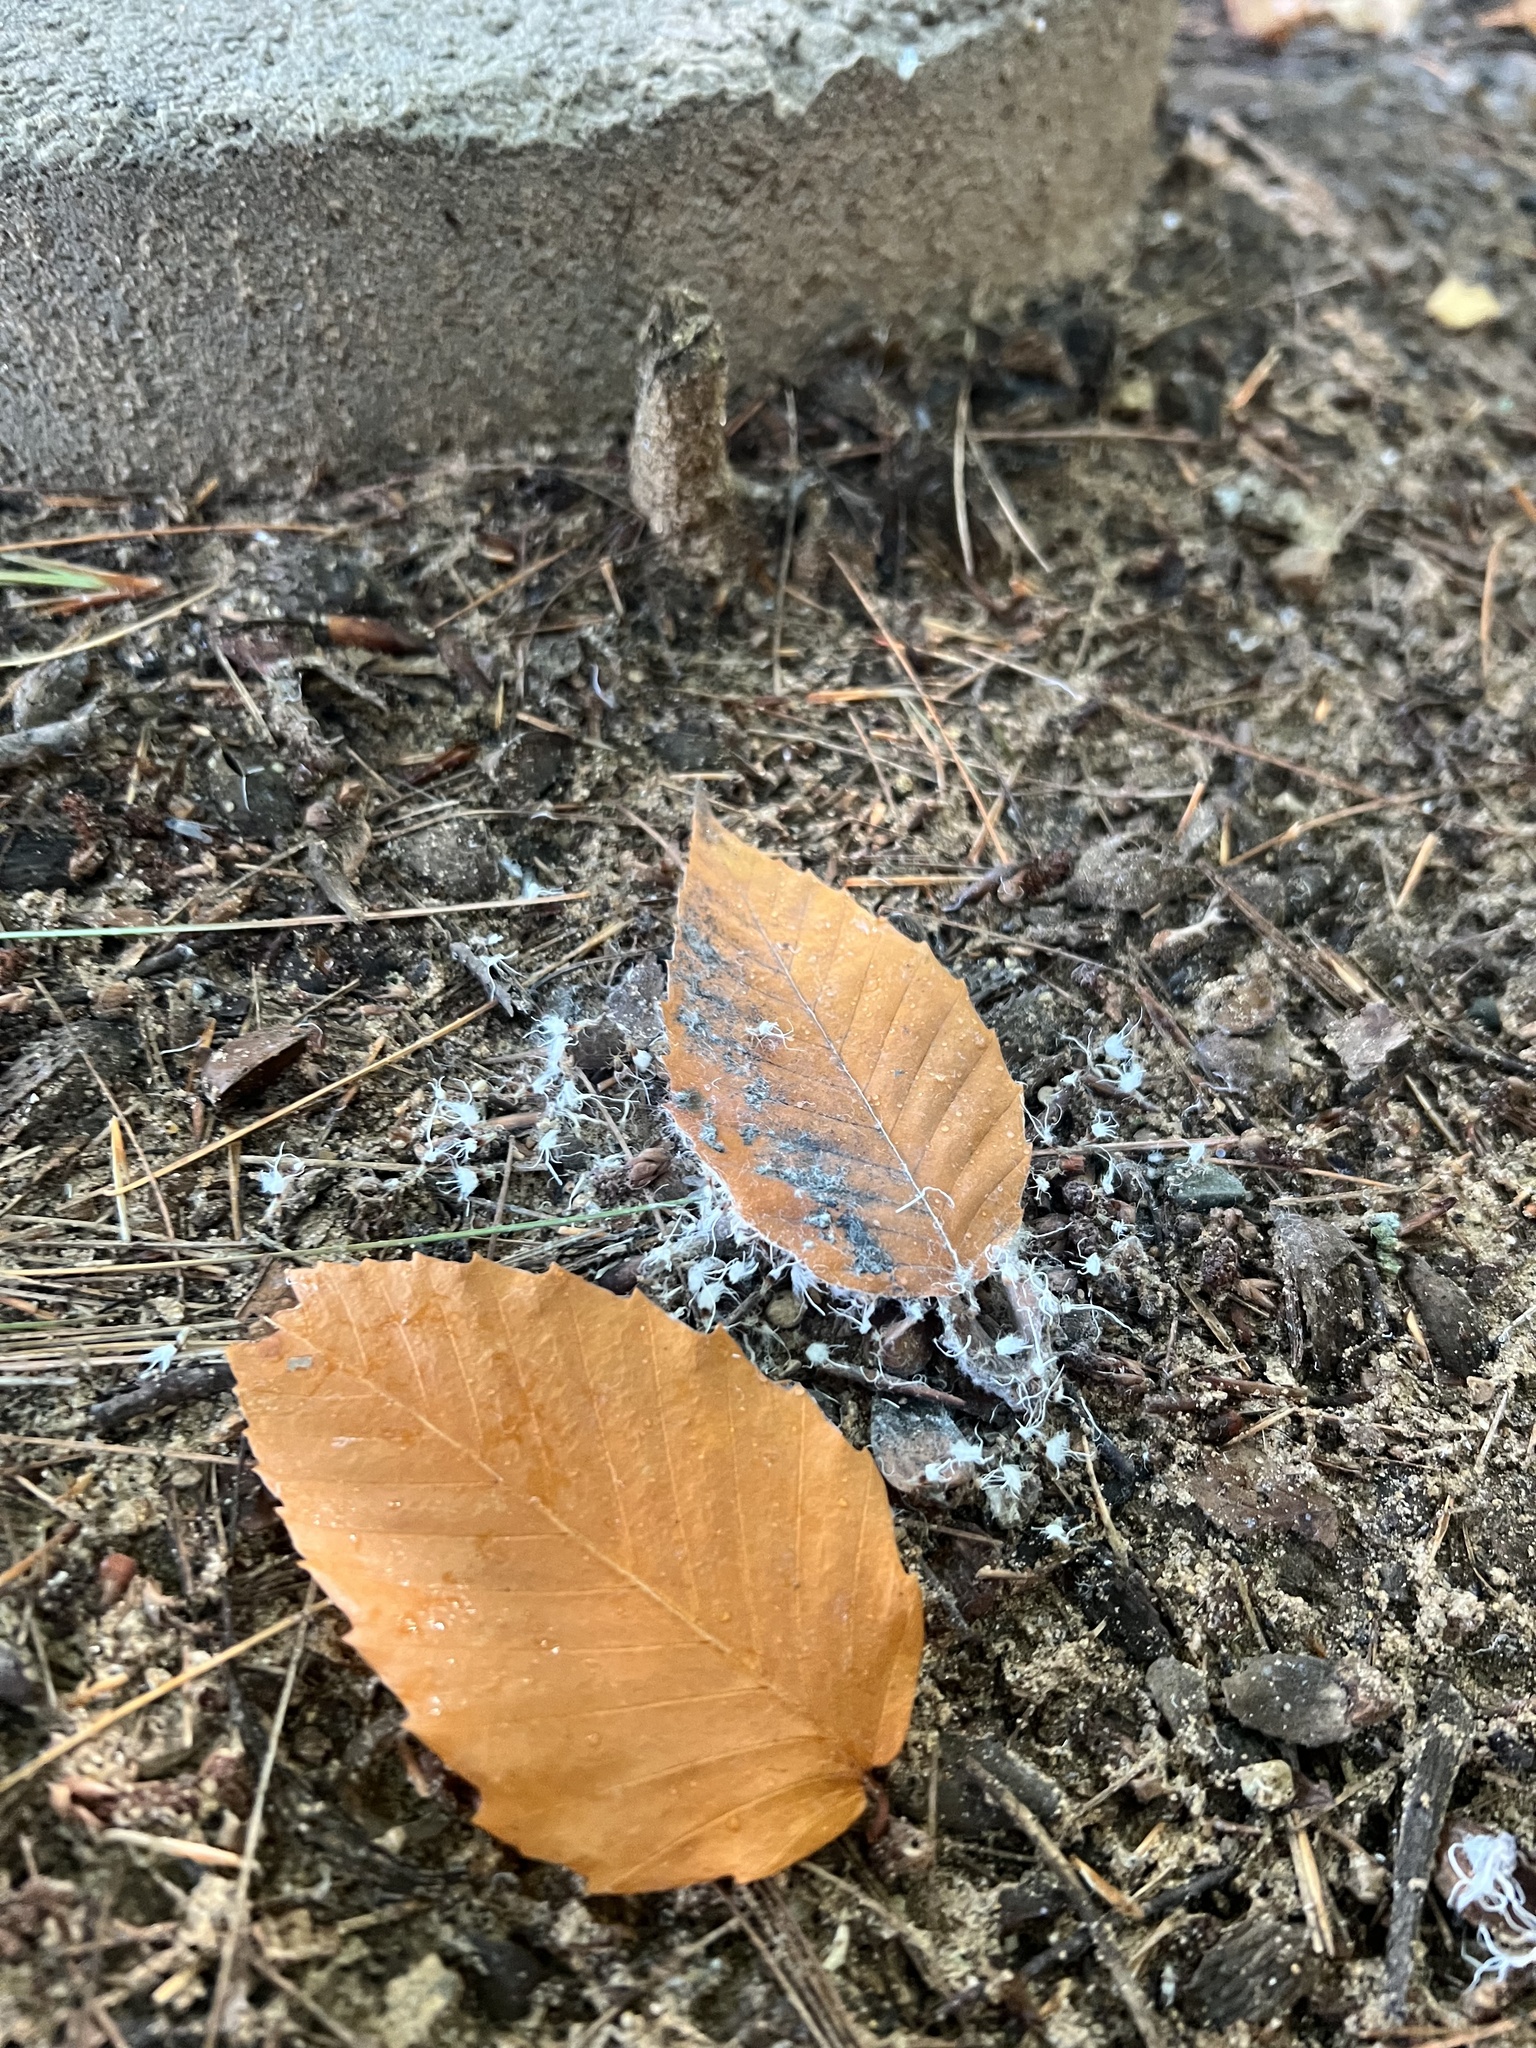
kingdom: Animalia
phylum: Arthropoda
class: Insecta
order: Hemiptera
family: Aphididae
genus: Grylloprociphilus
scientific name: Grylloprociphilus imbricator
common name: Beech blight aphid
